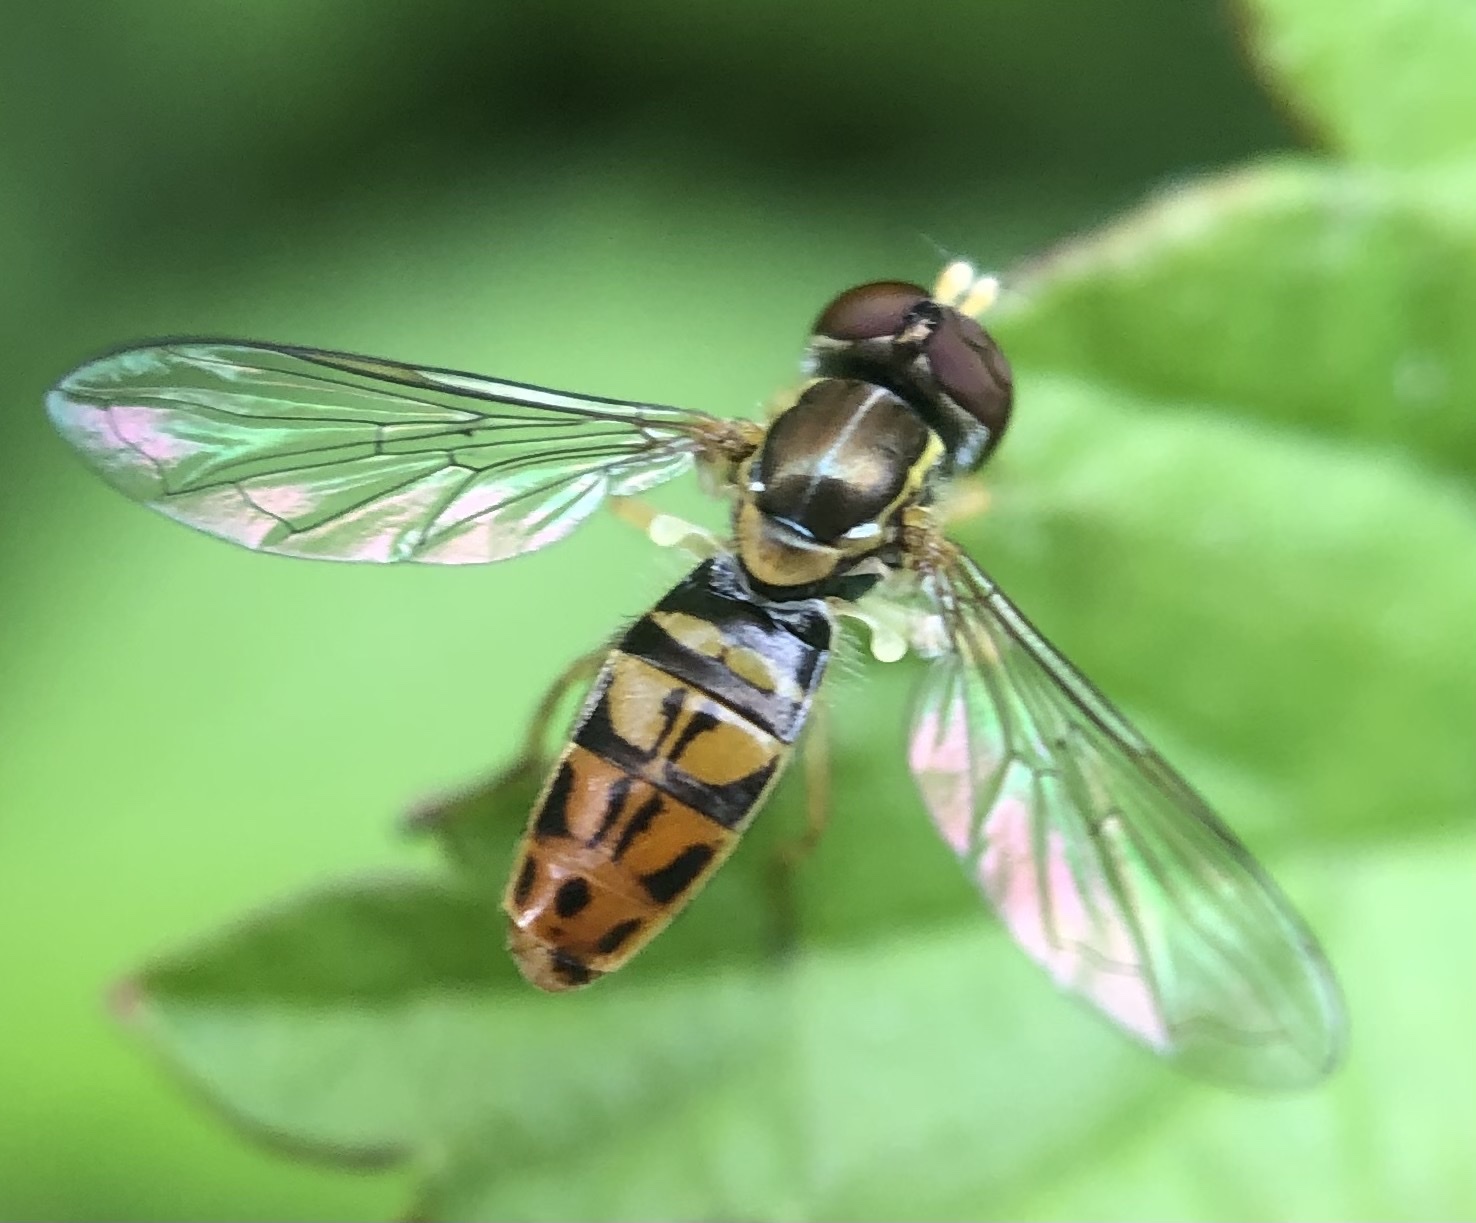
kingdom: Animalia
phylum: Arthropoda
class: Insecta
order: Diptera
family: Syrphidae
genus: Toxomerus
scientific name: Toxomerus marginatus
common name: Syrphid fly
